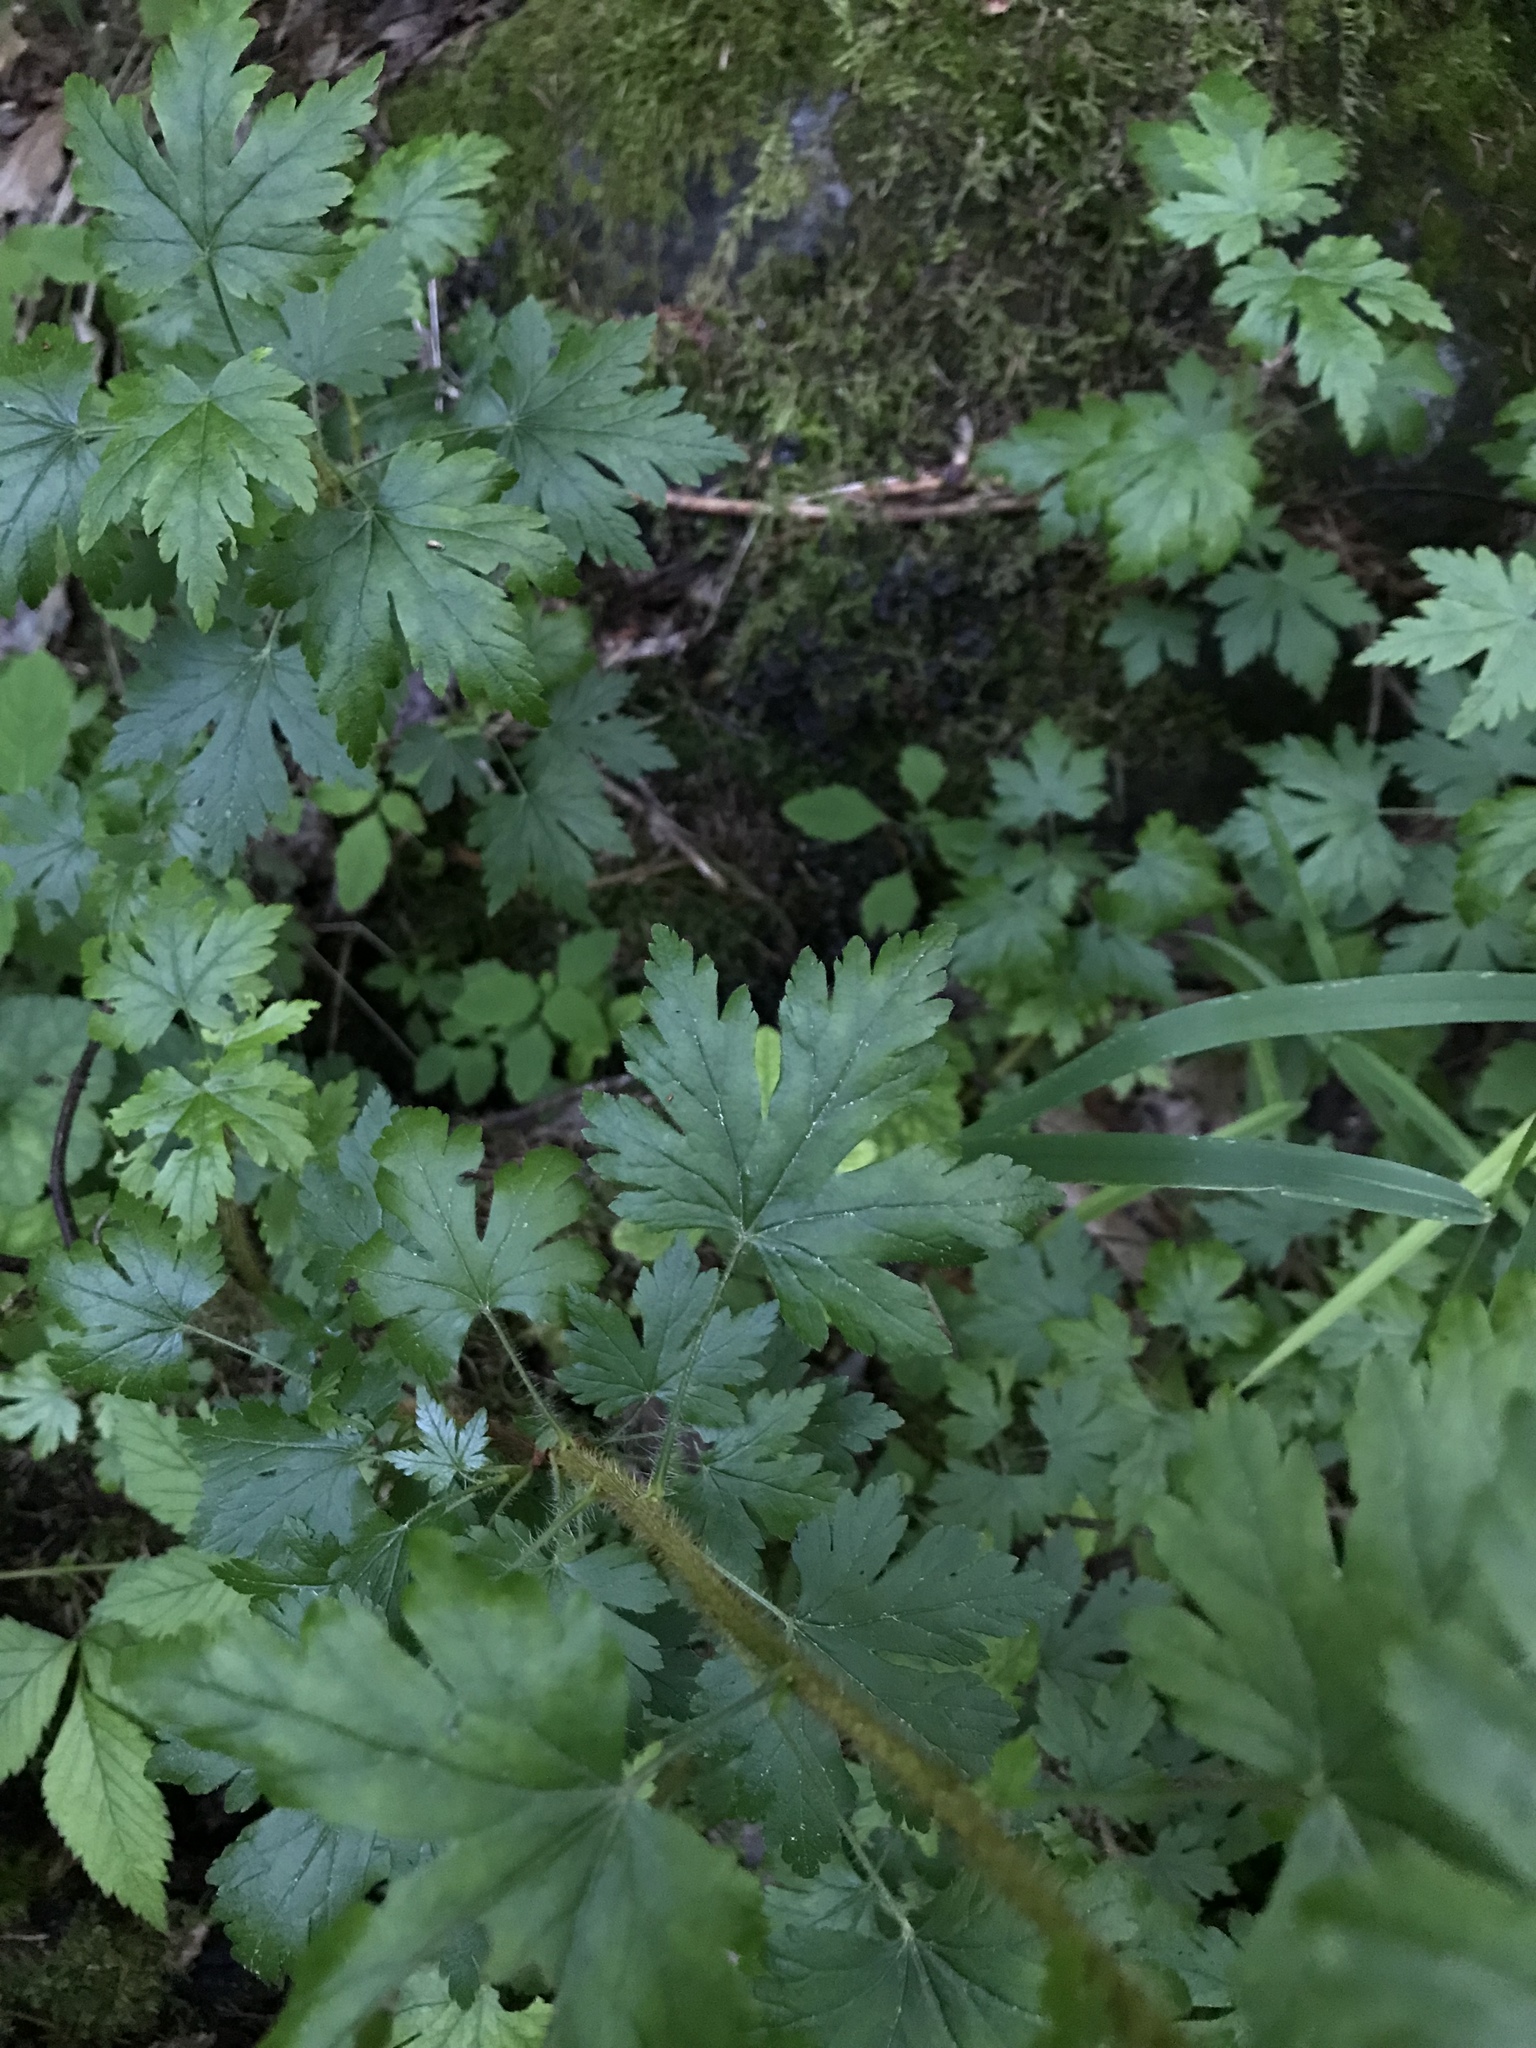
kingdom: Plantae
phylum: Tracheophyta
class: Magnoliopsida
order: Saxifragales
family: Grossulariaceae
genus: Ribes
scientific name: Ribes lacustre
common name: Black gooseberry
